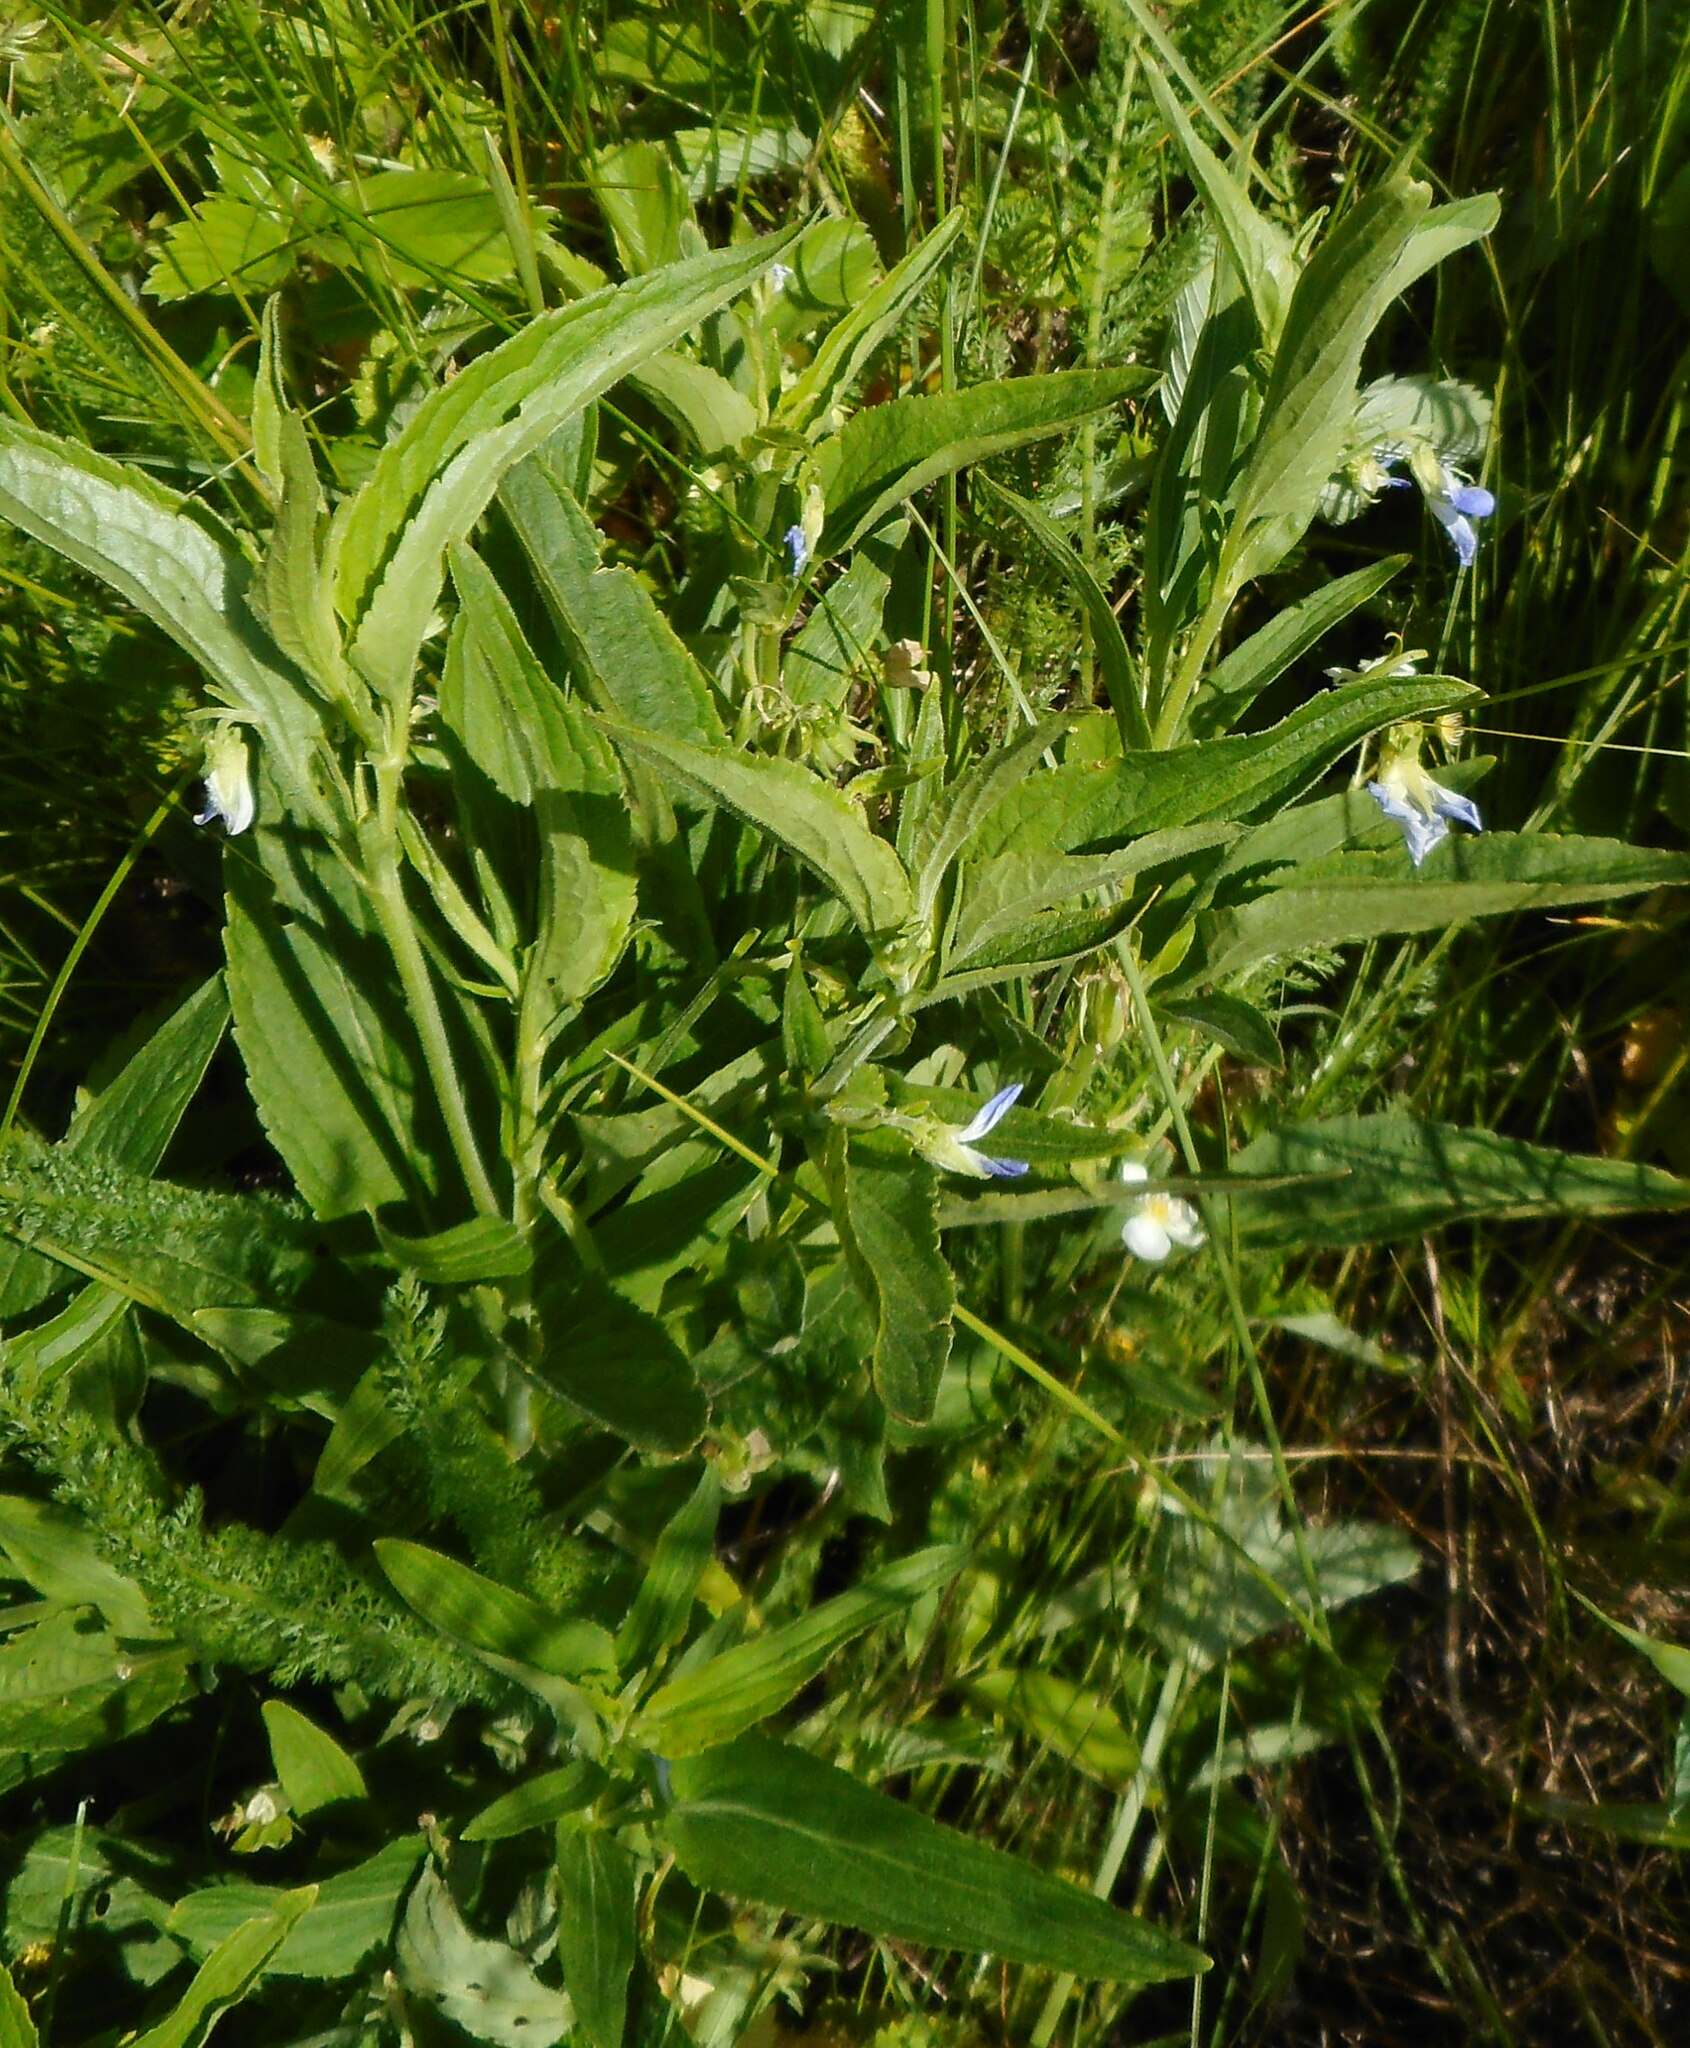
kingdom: Plantae
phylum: Tracheophyta
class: Magnoliopsida
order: Malpighiales
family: Violaceae
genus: Viola
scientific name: Viola elatior
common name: Tall violet
